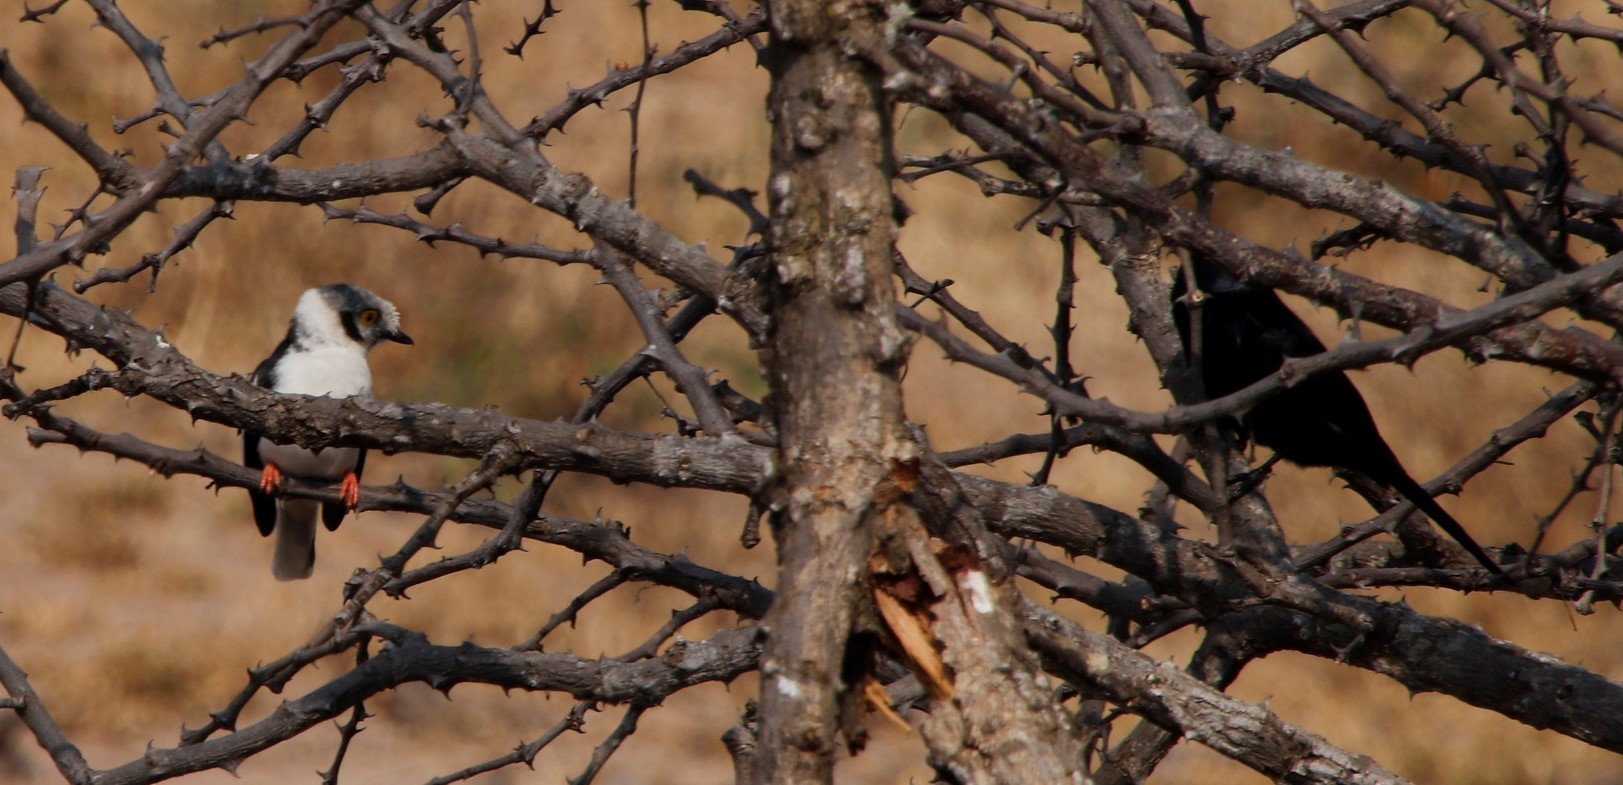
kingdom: Animalia
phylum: Chordata
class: Aves
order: Passeriformes
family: Dicruridae
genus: Dicrurus
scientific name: Dicrurus adsimilis
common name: Fork-tailed drongo
